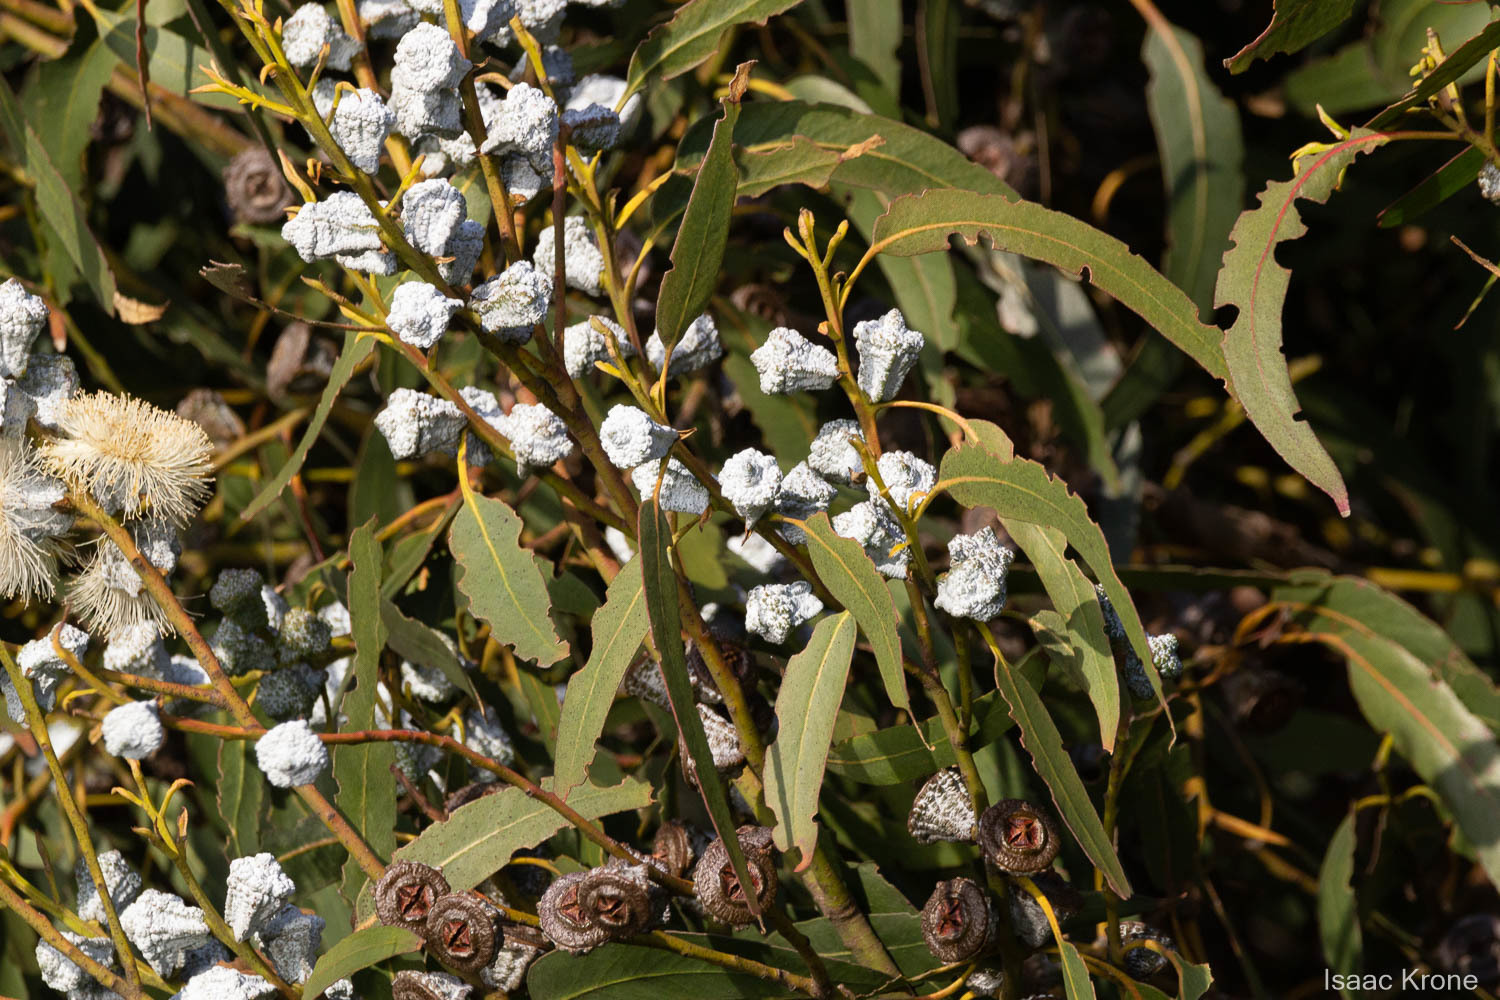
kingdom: Plantae
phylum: Tracheophyta
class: Magnoliopsida
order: Myrtales
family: Myrtaceae
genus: Eucalyptus
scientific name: Eucalyptus globulus
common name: Southern blue-gum
